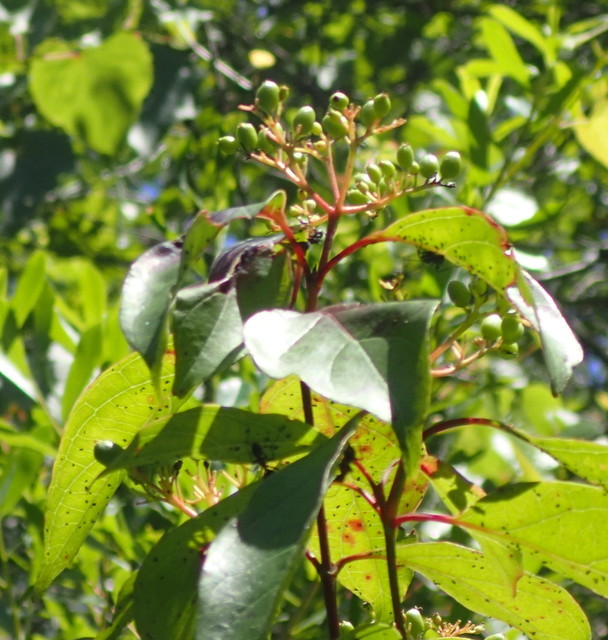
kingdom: Plantae
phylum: Tracheophyta
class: Magnoliopsida
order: Cornales
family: Cornaceae
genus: Cornus
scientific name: Cornus foemina
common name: Swamp dogwood
